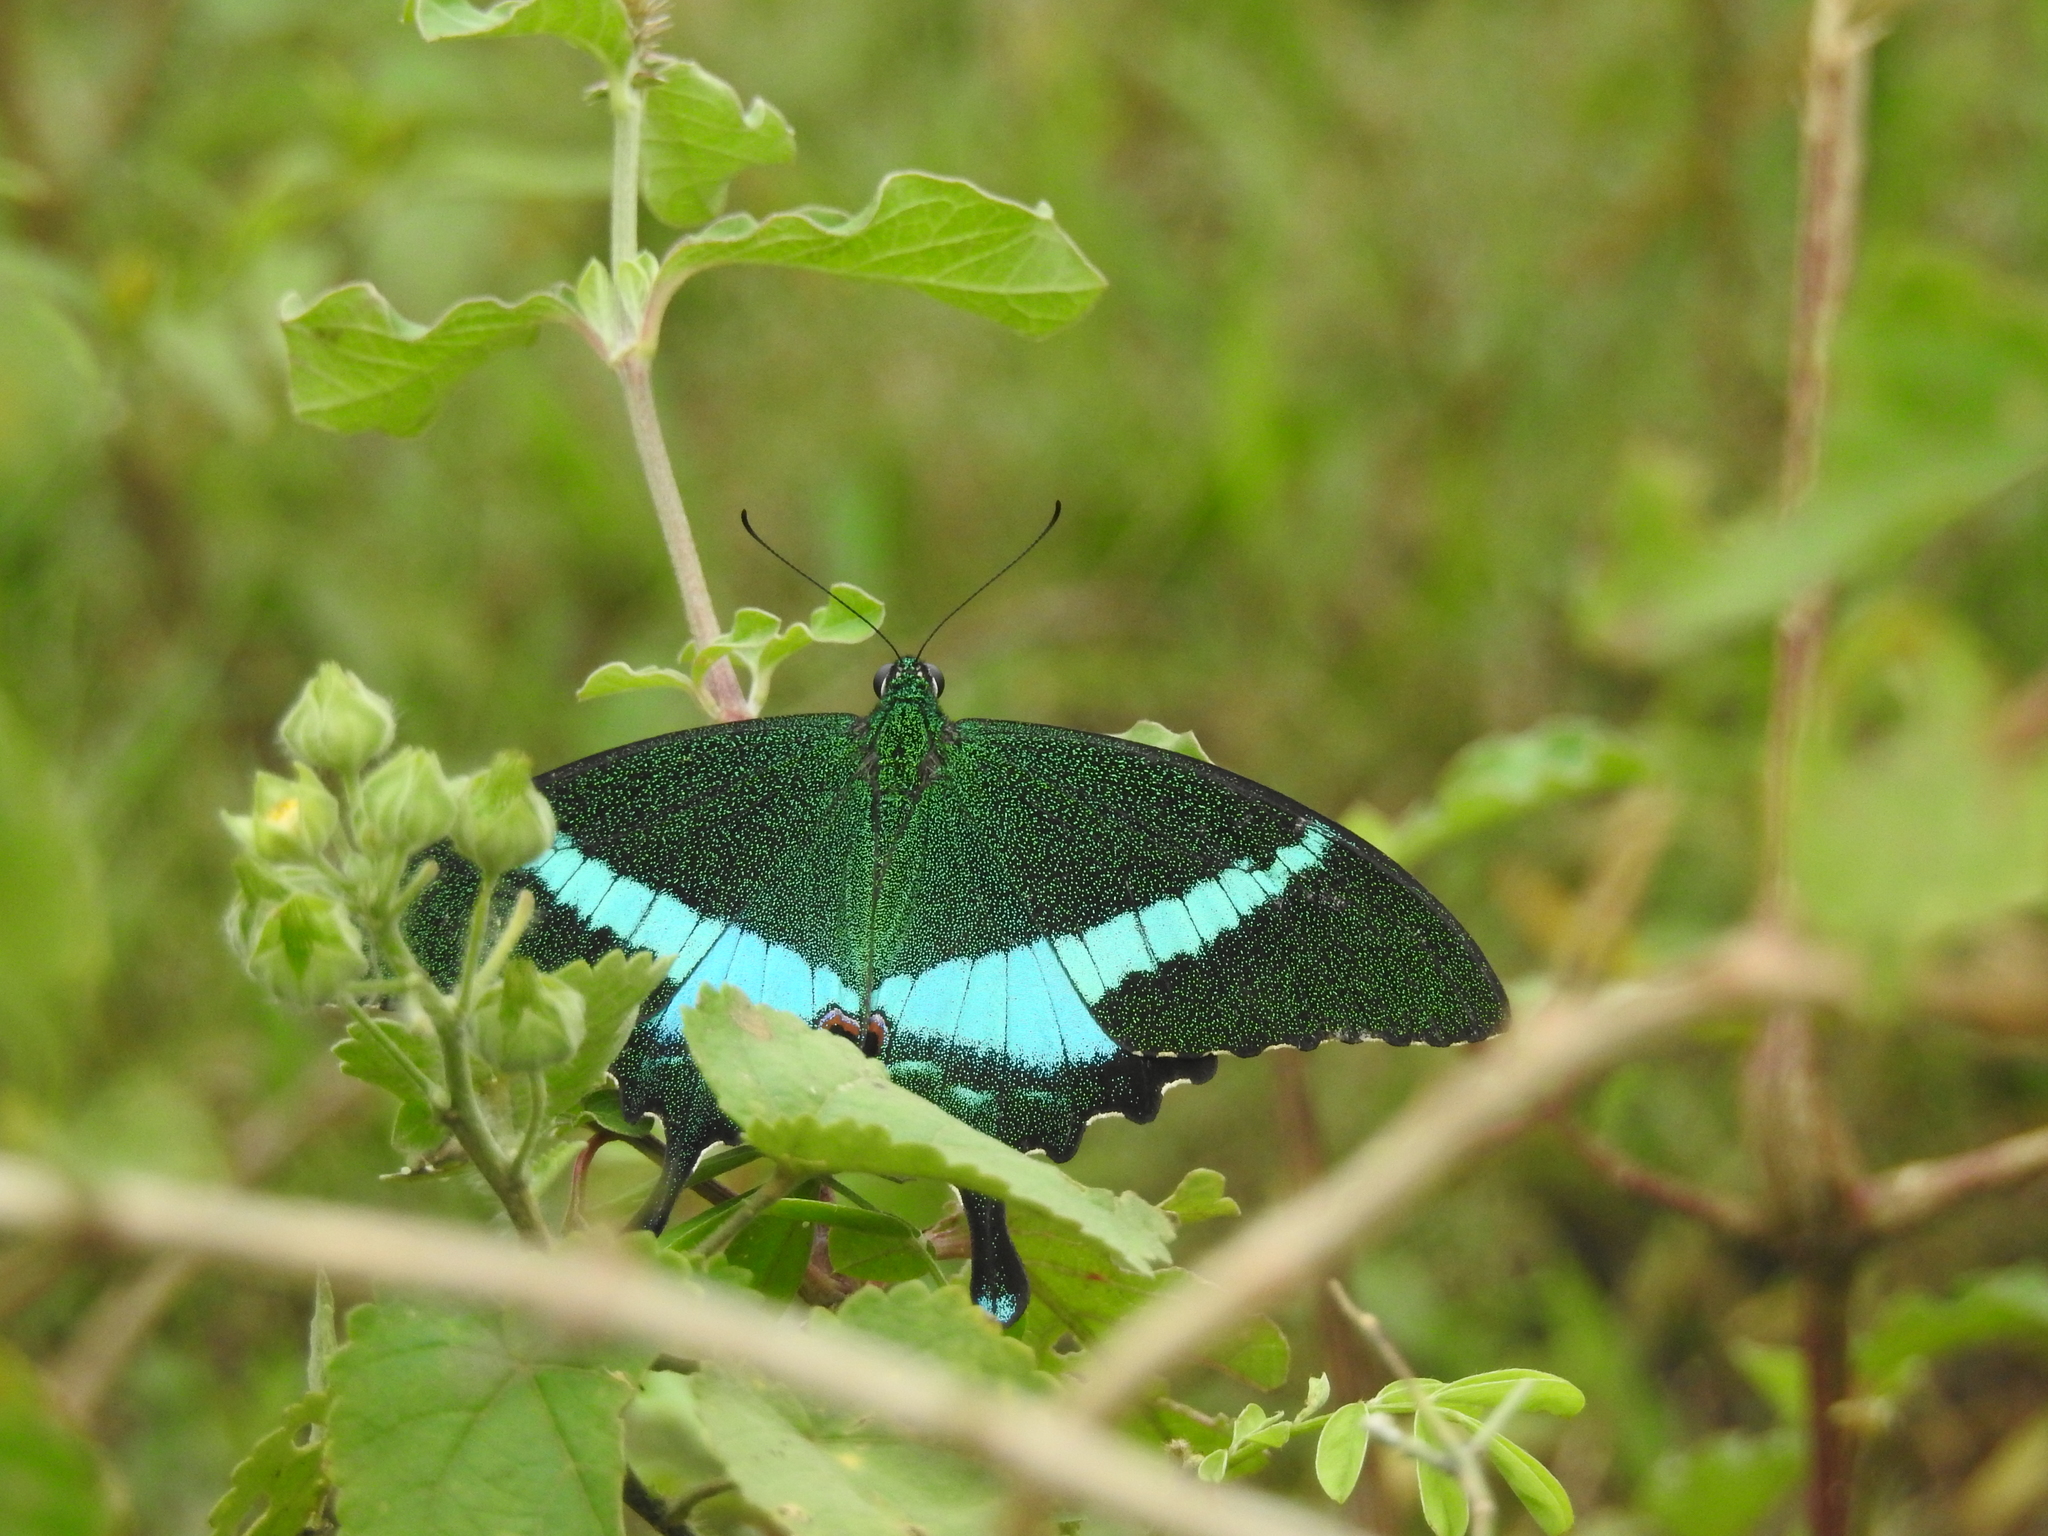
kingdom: Animalia
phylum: Arthropoda
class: Insecta
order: Lepidoptera
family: Papilionidae
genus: Papilio
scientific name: Papilio crino
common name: Common banded peacock
